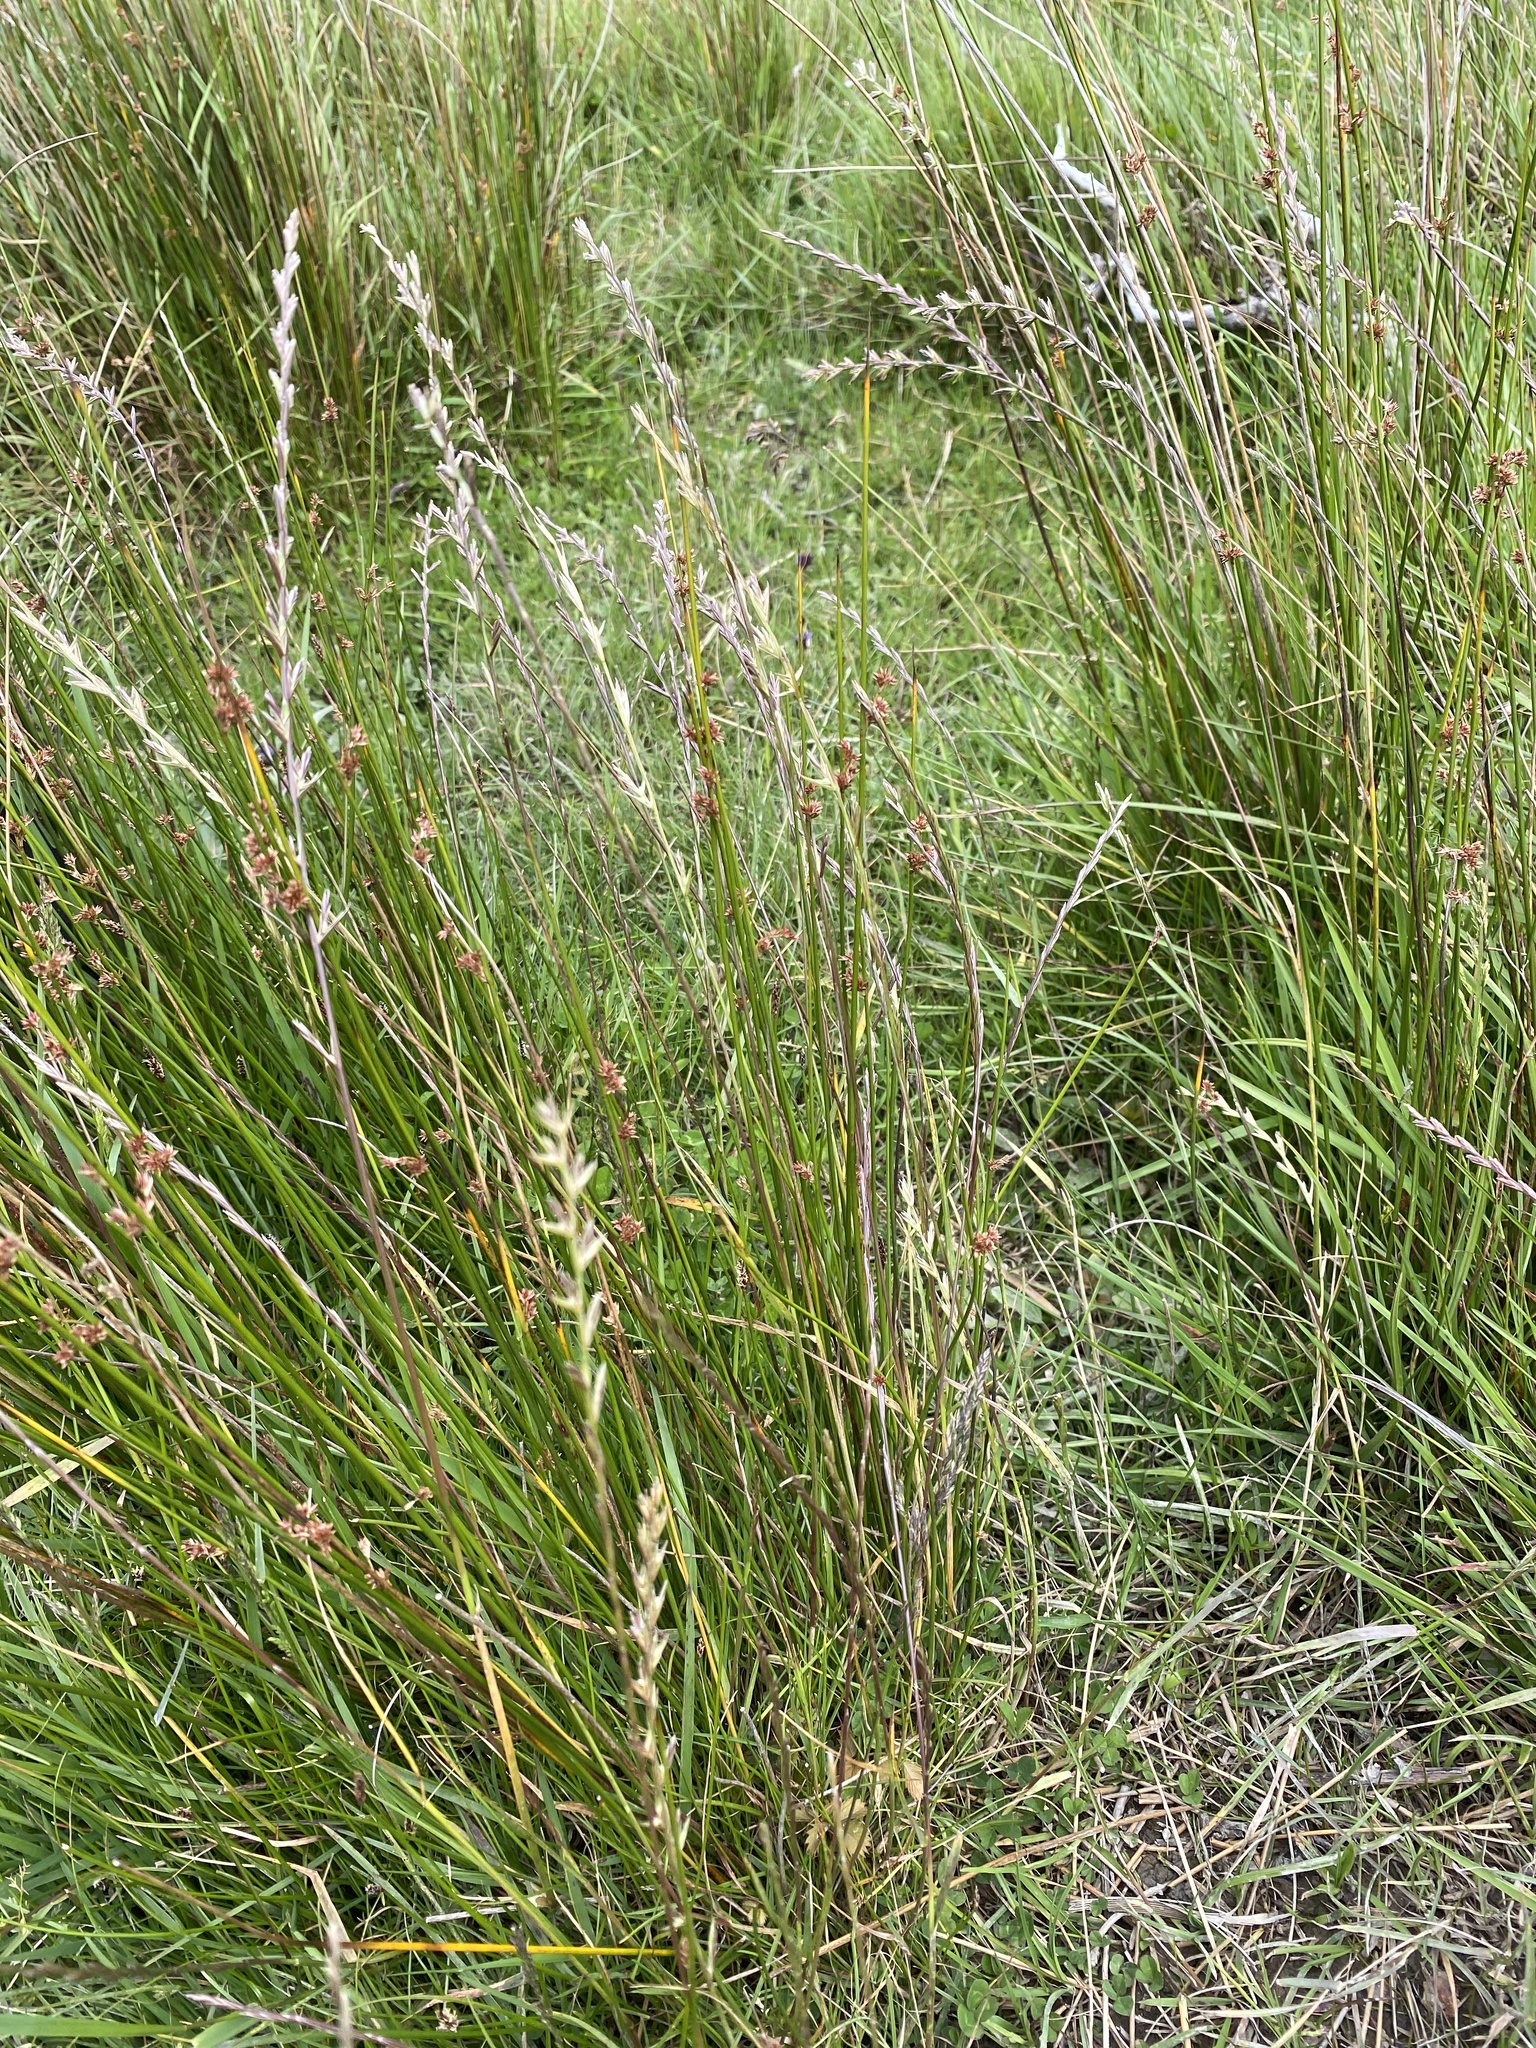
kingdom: Plantae
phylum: Tracheophyta
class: Liliopsida
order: Poales
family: Poaceae
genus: Lolium
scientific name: Lolium perenne
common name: Perennial ryegrass
